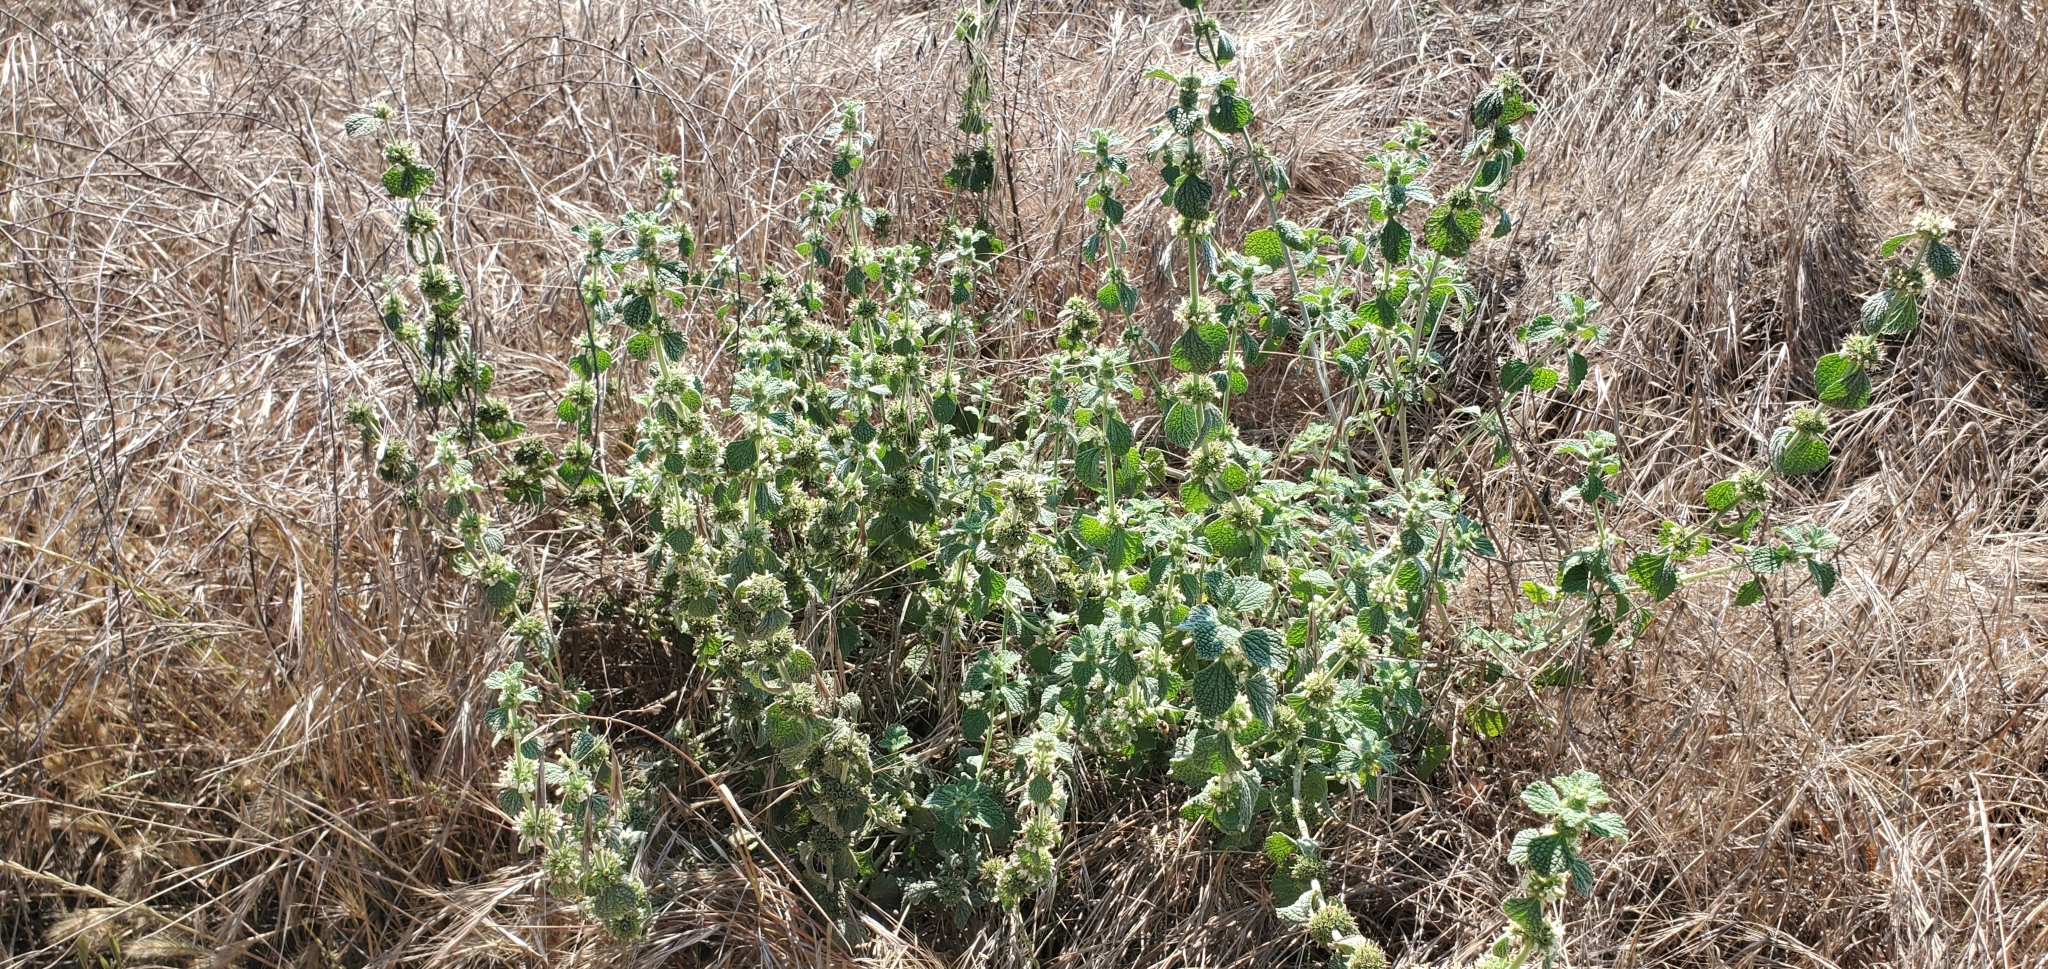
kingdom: Plantae
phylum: Tracheophyta
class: Magnoliopsida
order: Lamiales
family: Lamiaceae
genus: Marrubium
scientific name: Marrubium vulgare
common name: Horehound
